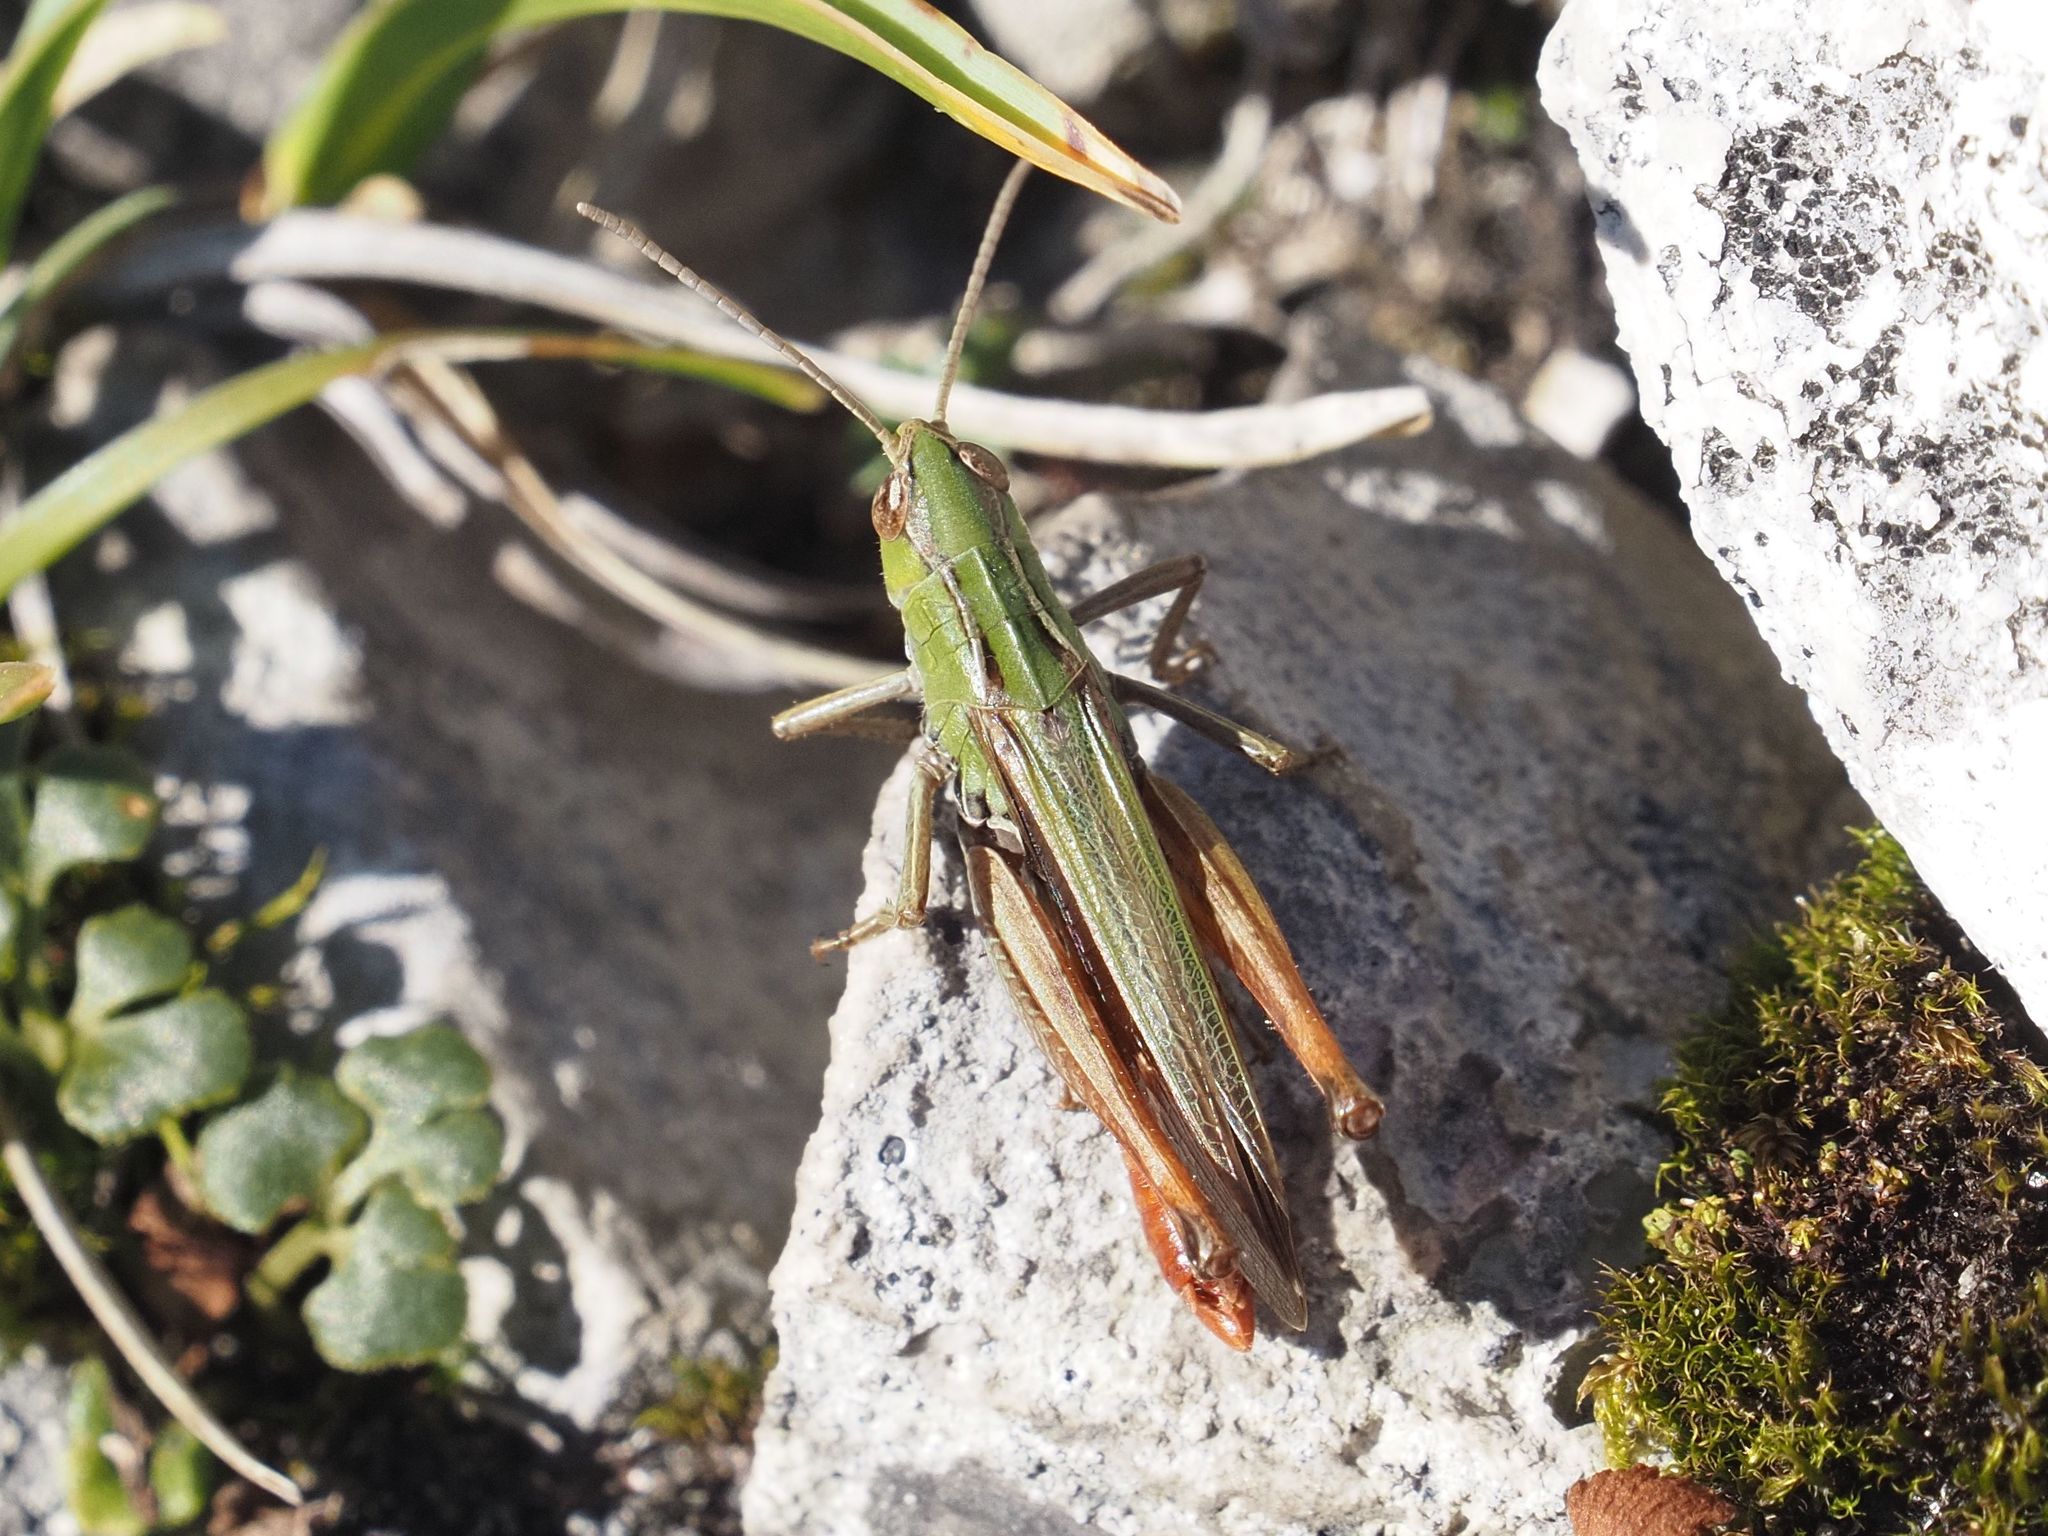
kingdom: Animalia
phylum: Arthropoda
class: Insecta
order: Orthoptera
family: Acrididae
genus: Stenobothrus
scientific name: Stenobothrus lineatus
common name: Stripe-winged grasshopper
